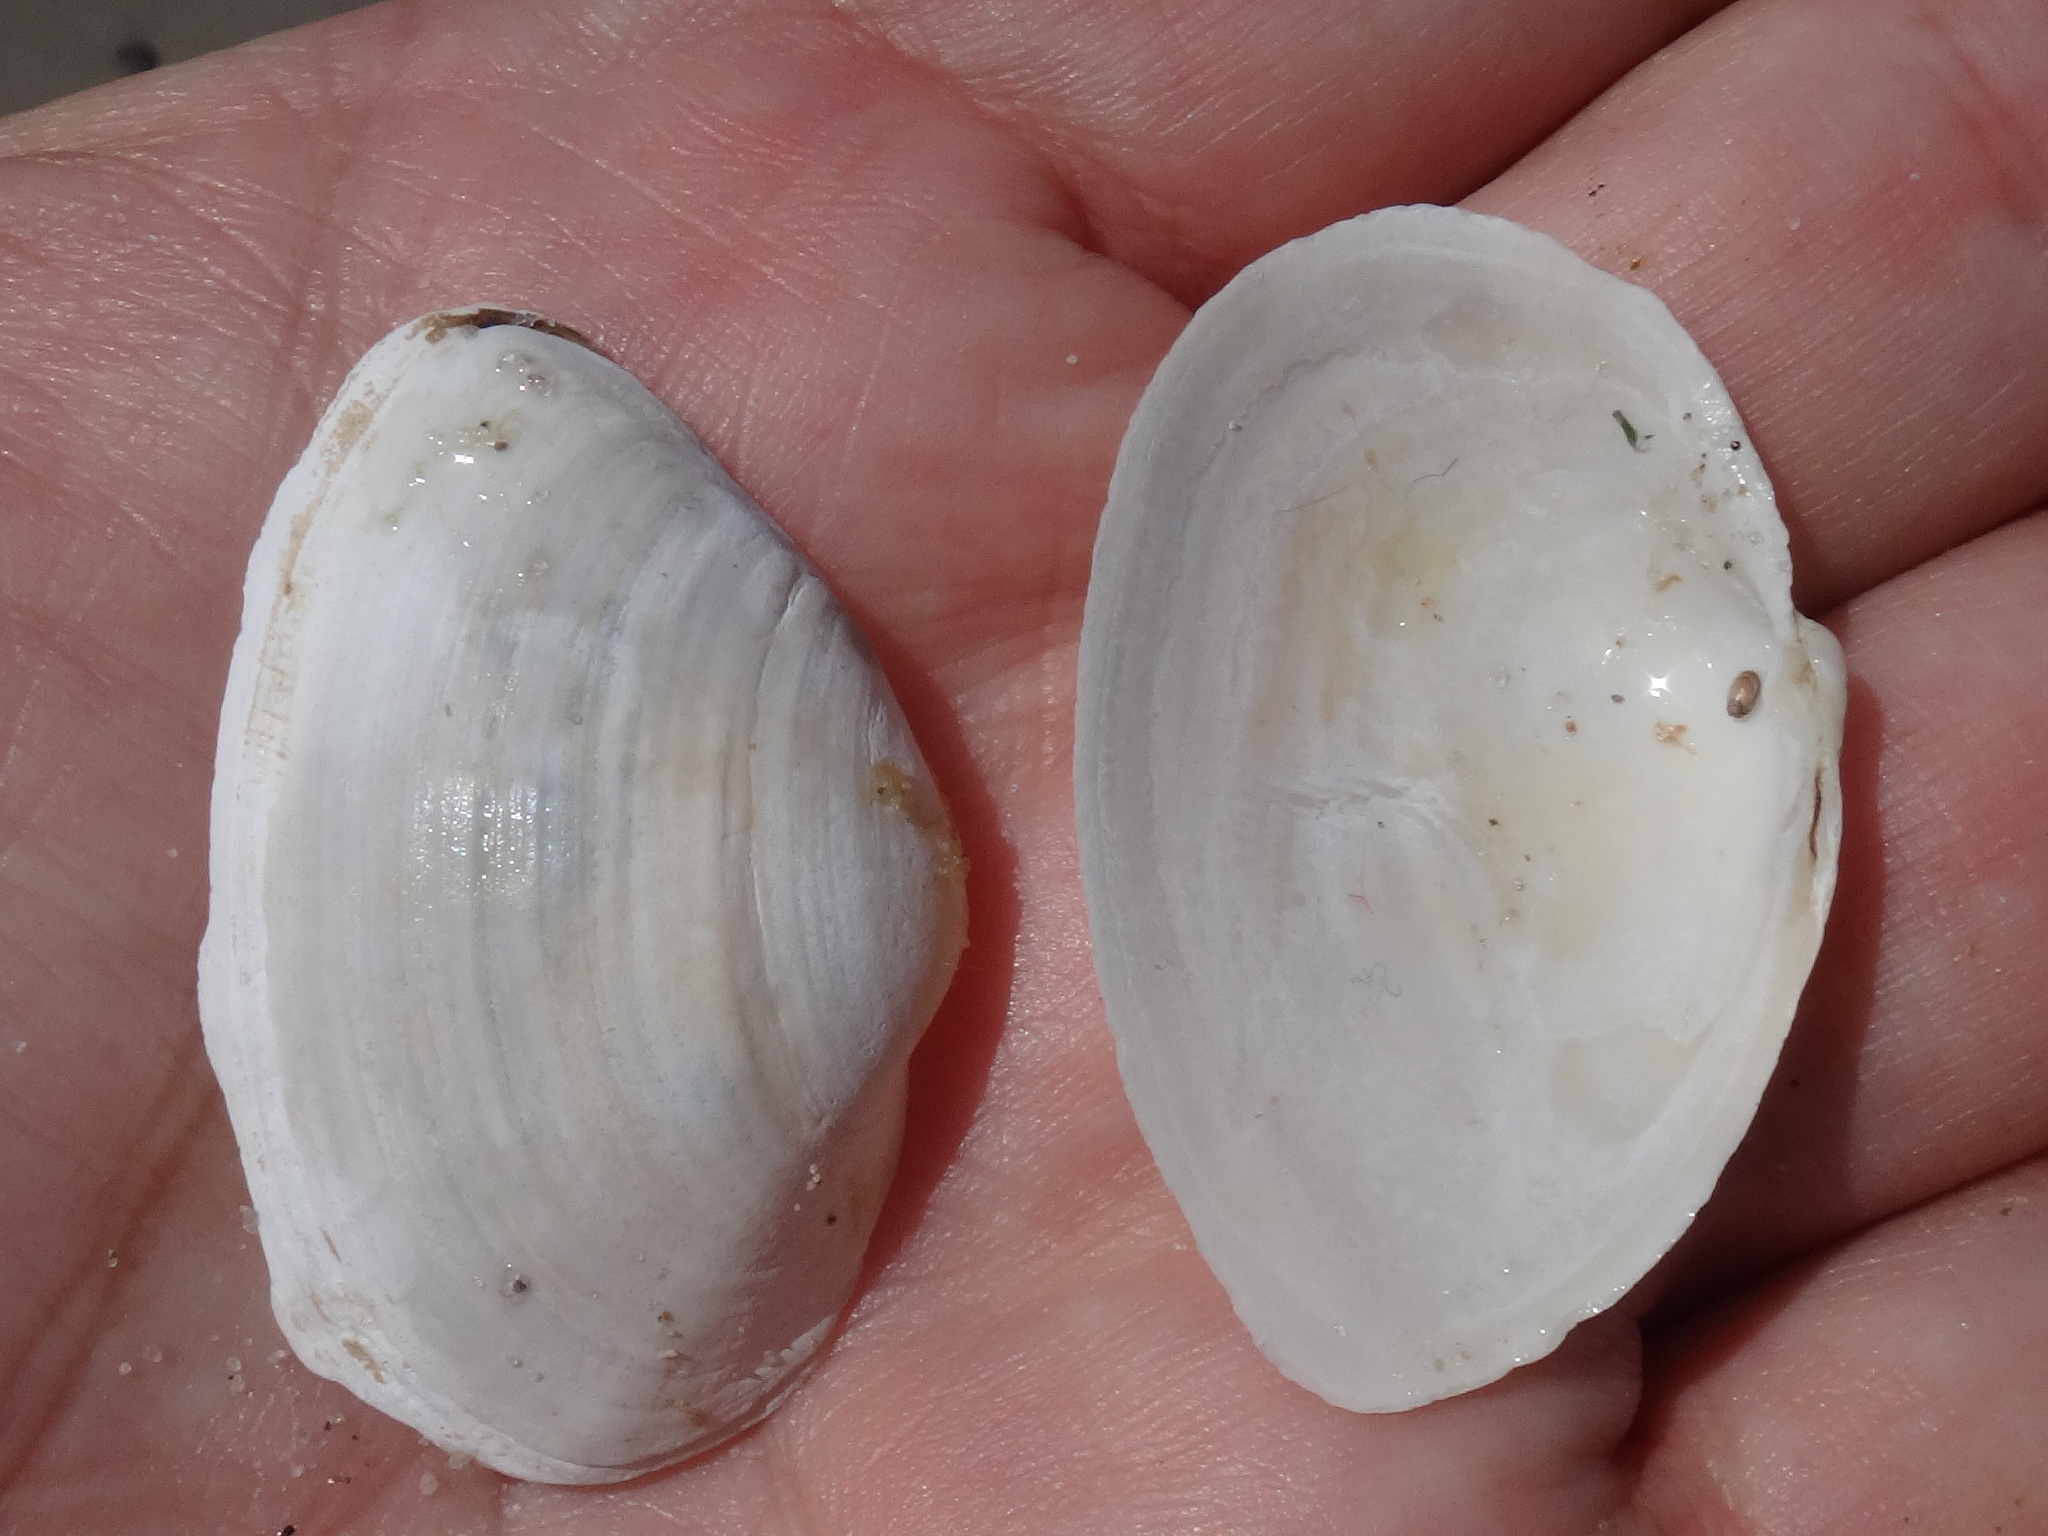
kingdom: Animalia
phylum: Mollusca
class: Bivalvia
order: Myida
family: Myidae
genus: Mya
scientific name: Mya arenaria
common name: Soft-shelled clam
